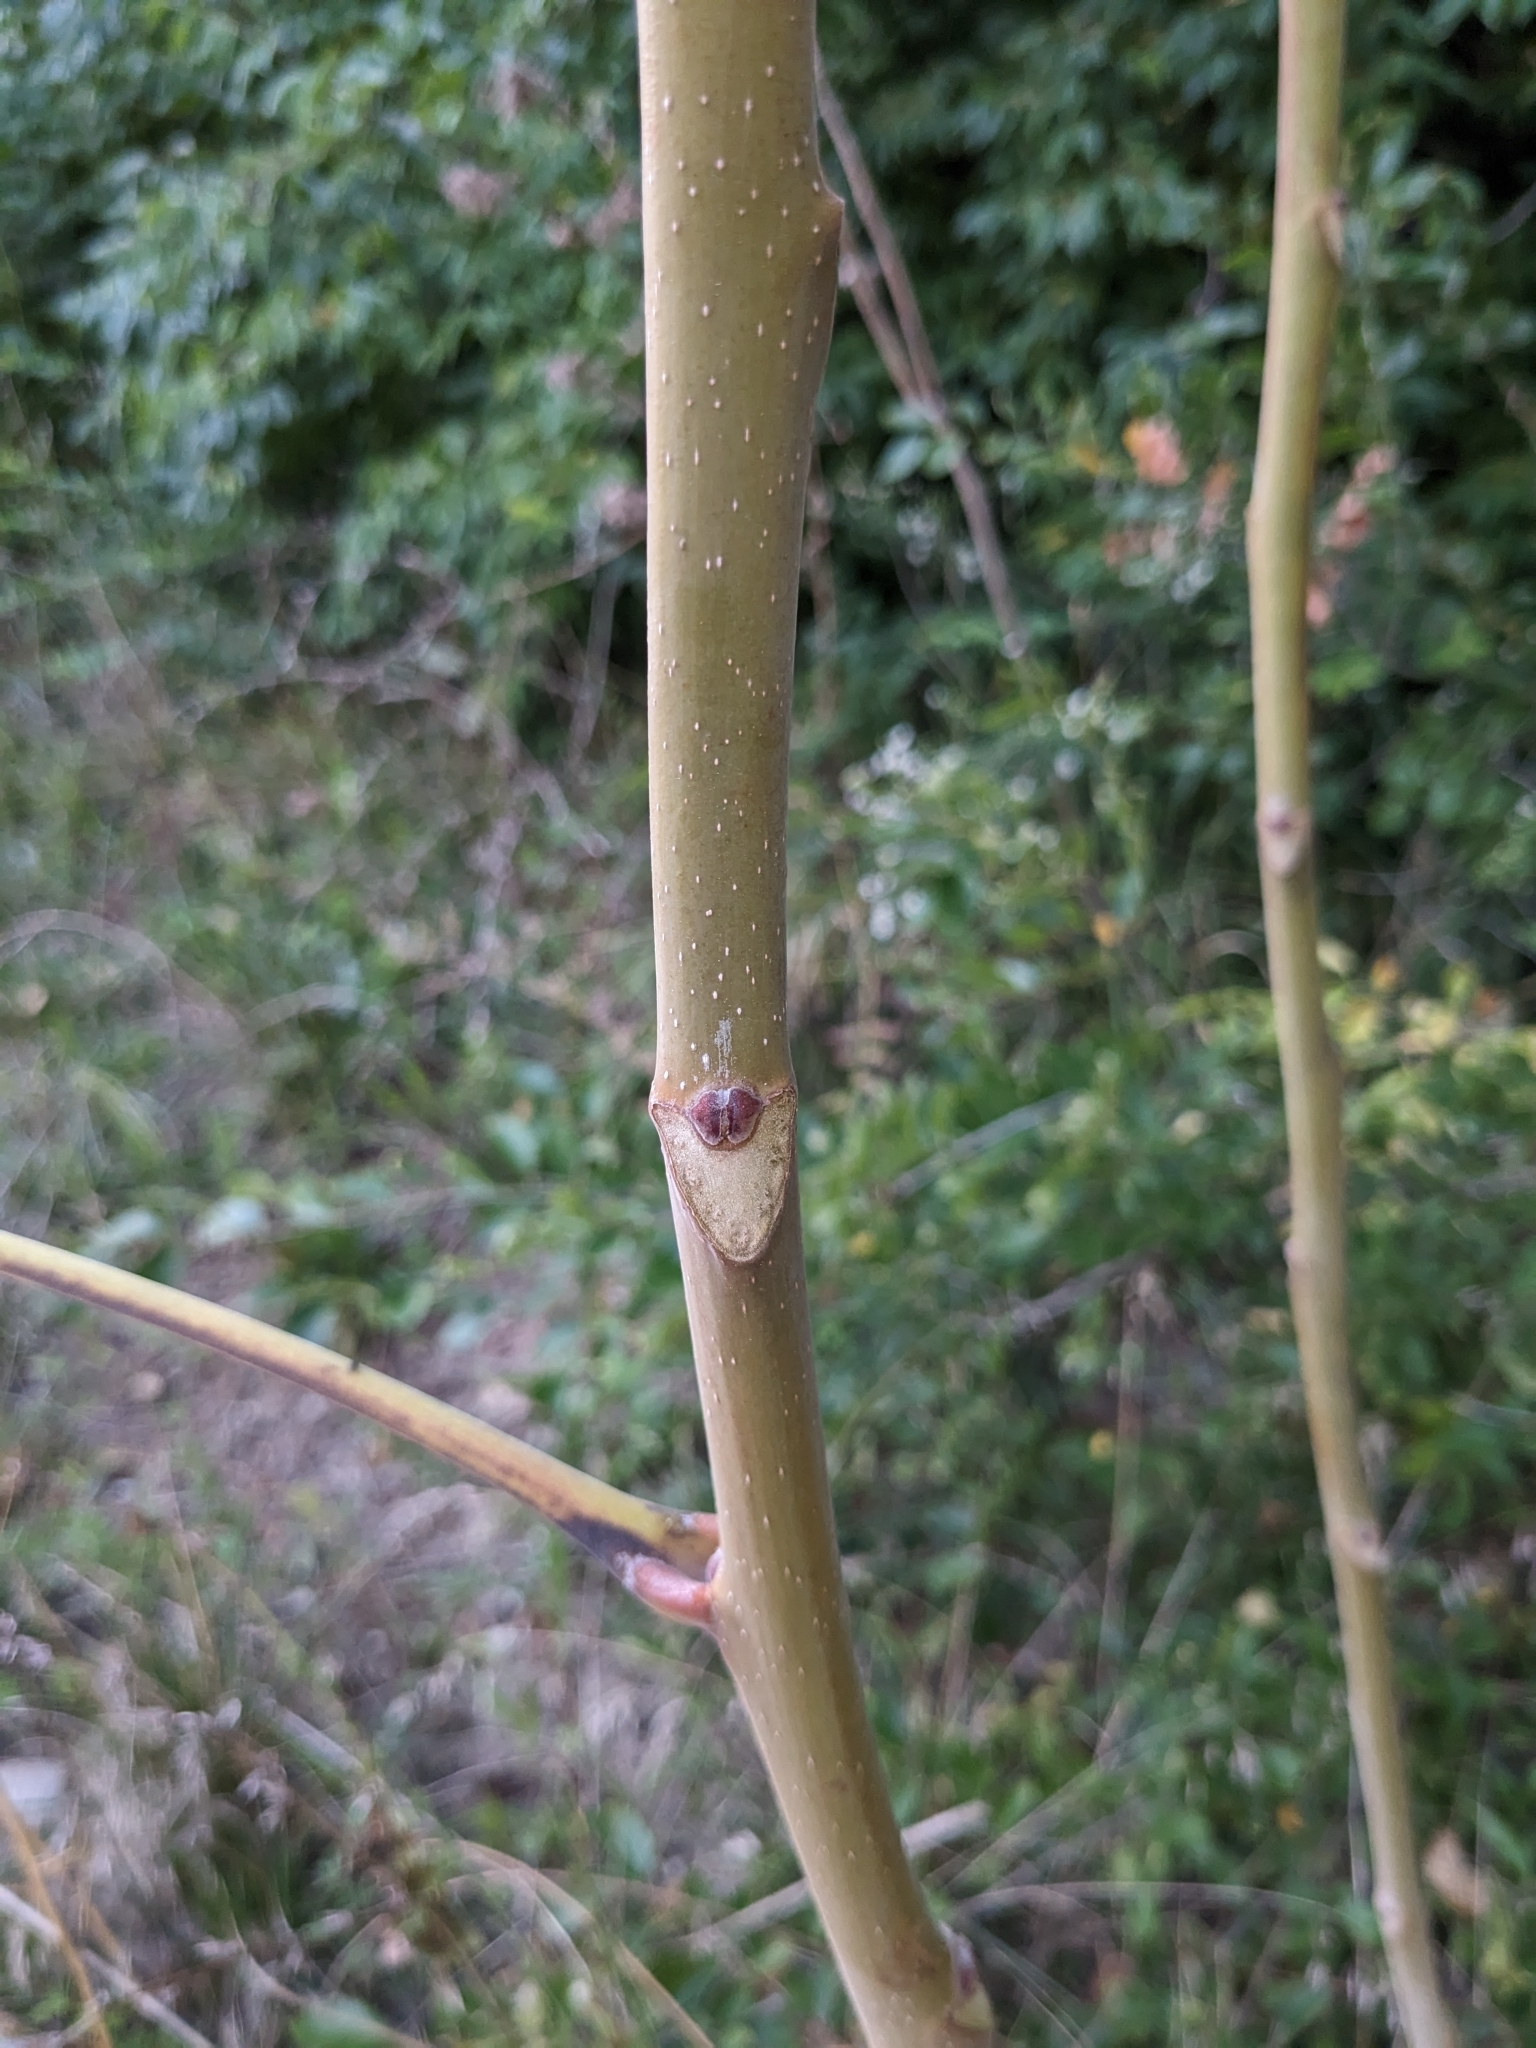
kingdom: Plantae
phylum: Tracheophyta
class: Magnoliopsida
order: Sapindales
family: Simaroubaceae
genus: Ailanthus
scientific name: Ailanthus altissima
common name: Tree-of-heaven
